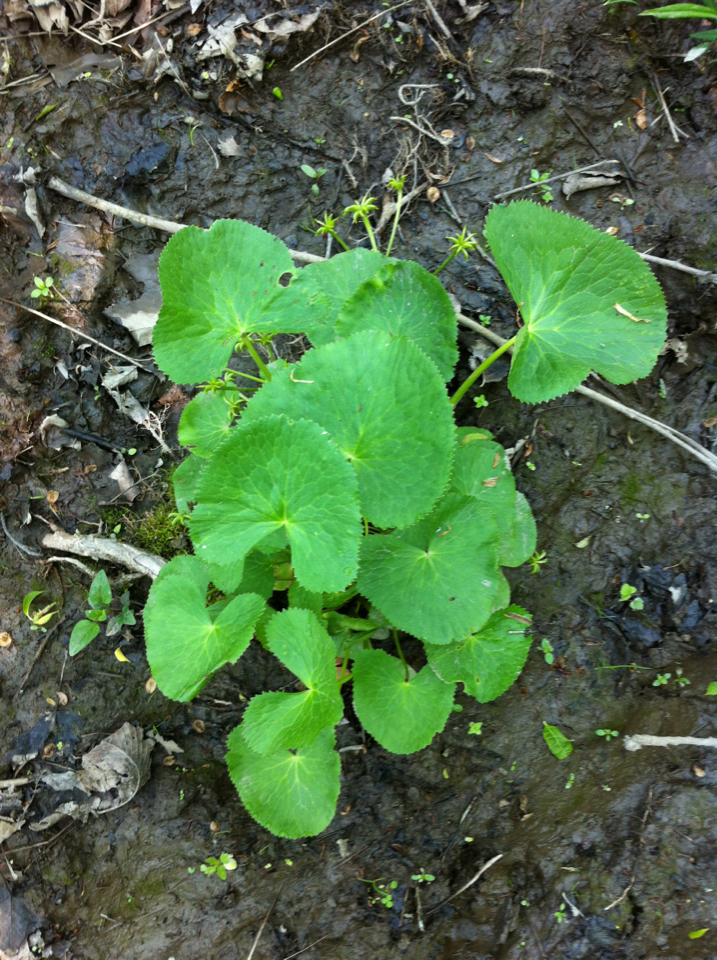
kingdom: Plantae
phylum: Tracheophyta
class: Magnoliopsida
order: Ranunculales
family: Ranunculaceae
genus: Caltha
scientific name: Caltha palustris
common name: Marsh marigold
